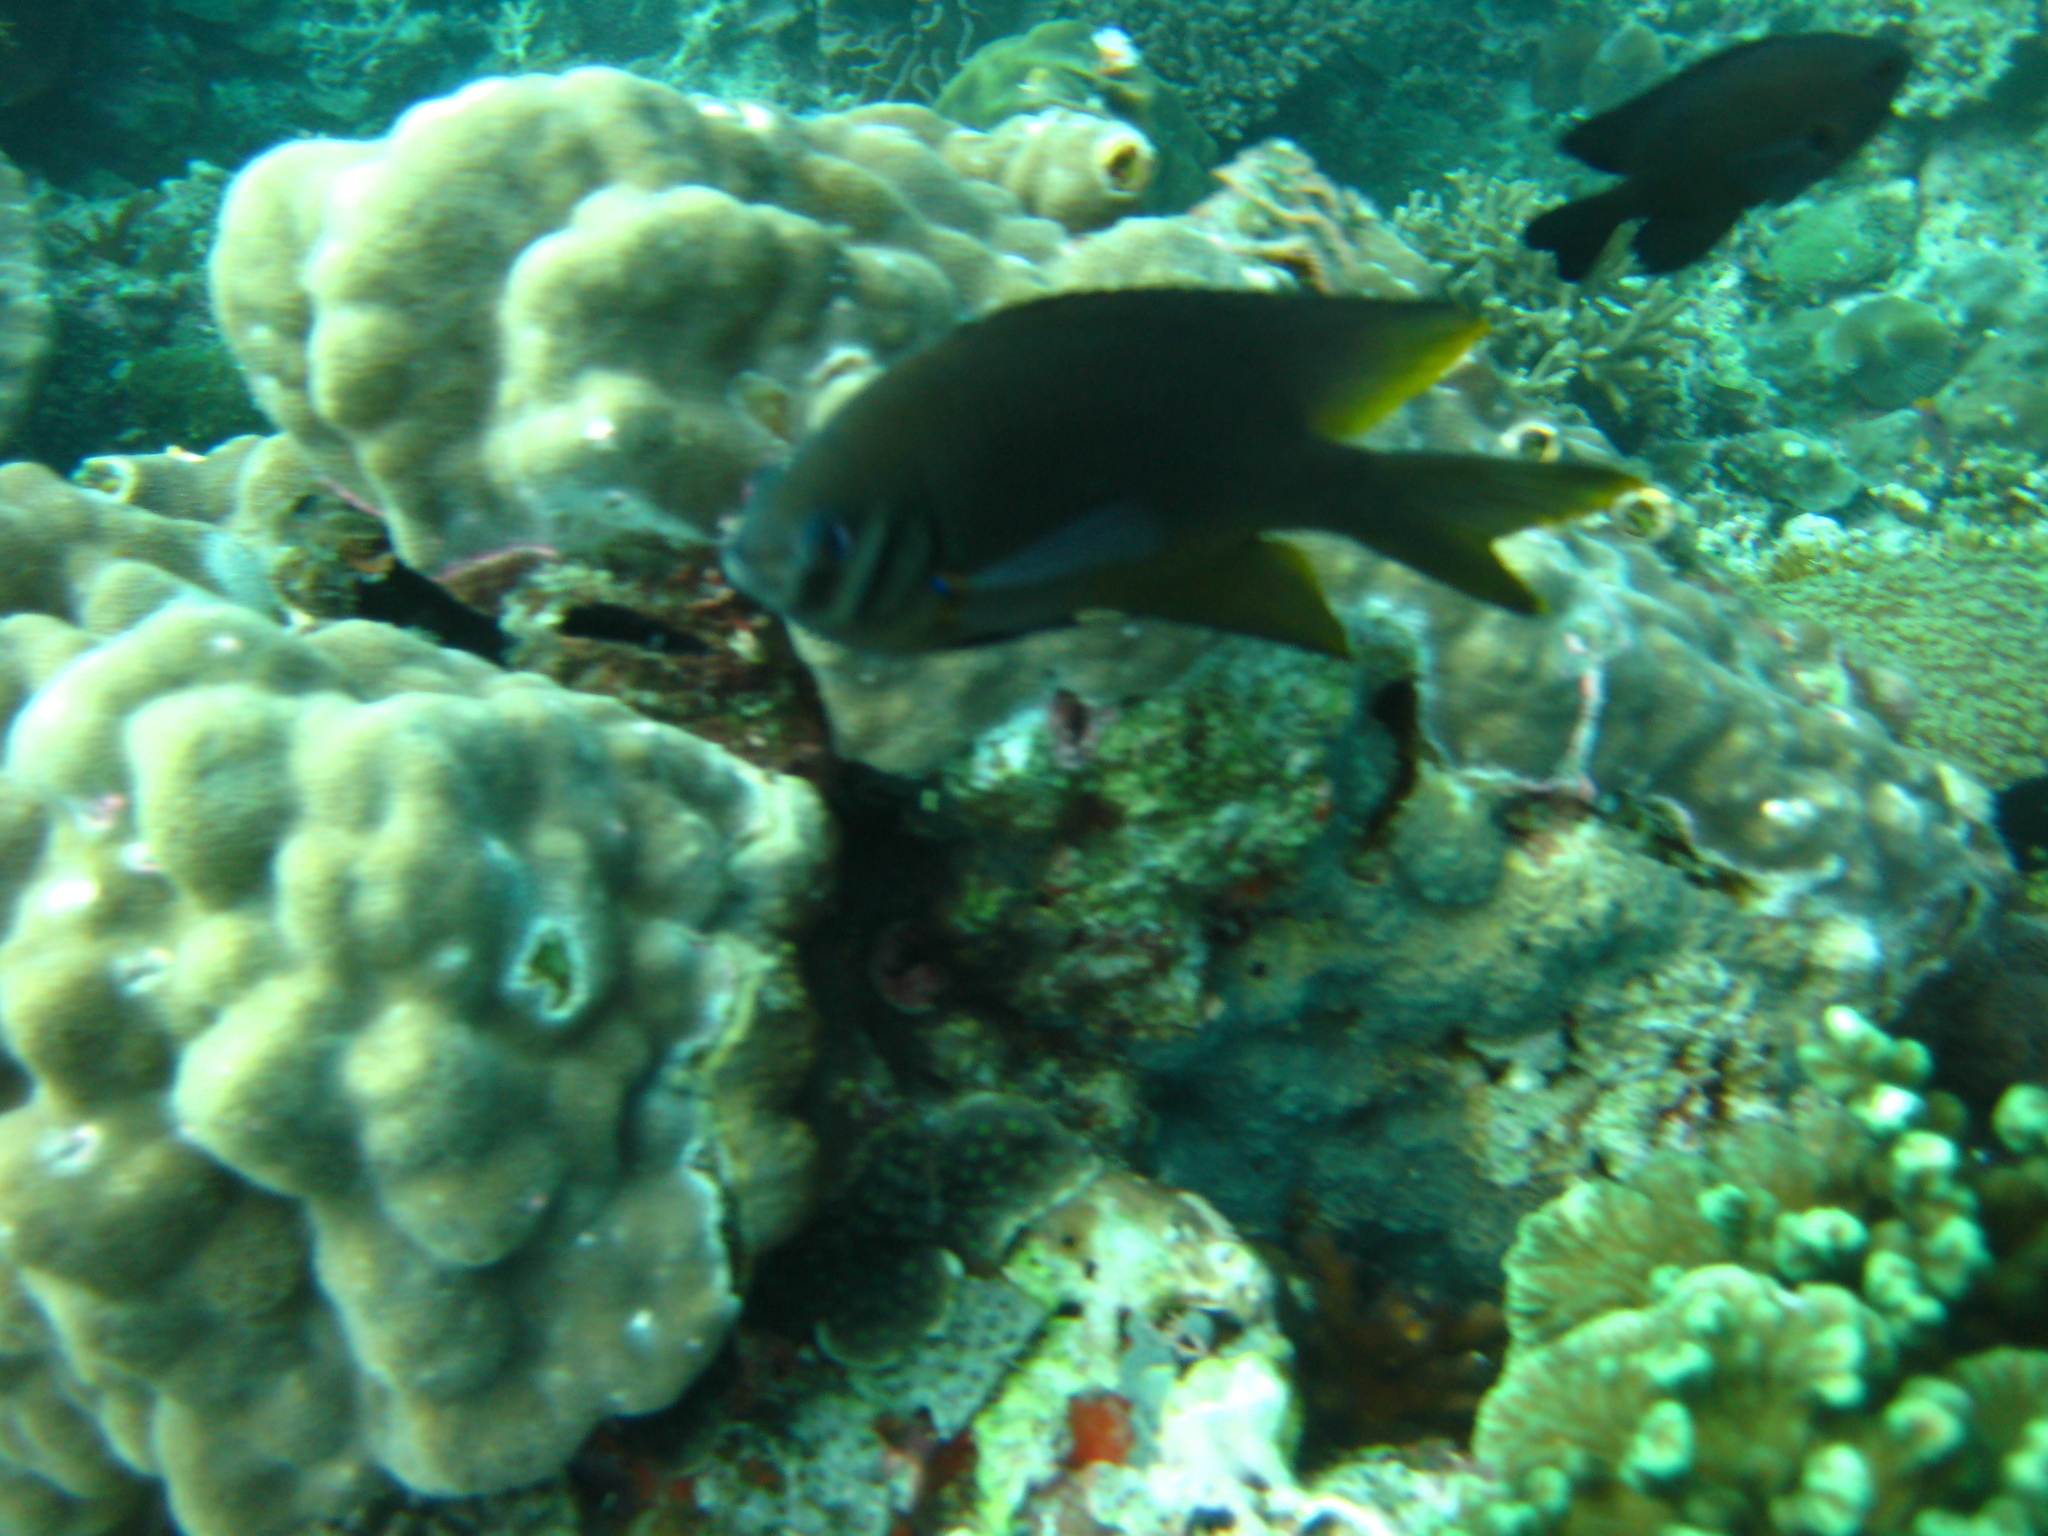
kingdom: Animalia
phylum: Chordata
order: Perciformes
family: Pomacentridae
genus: Neoglyphidodon
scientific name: Neoglyphidodon nigroris
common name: Behn's damsel
